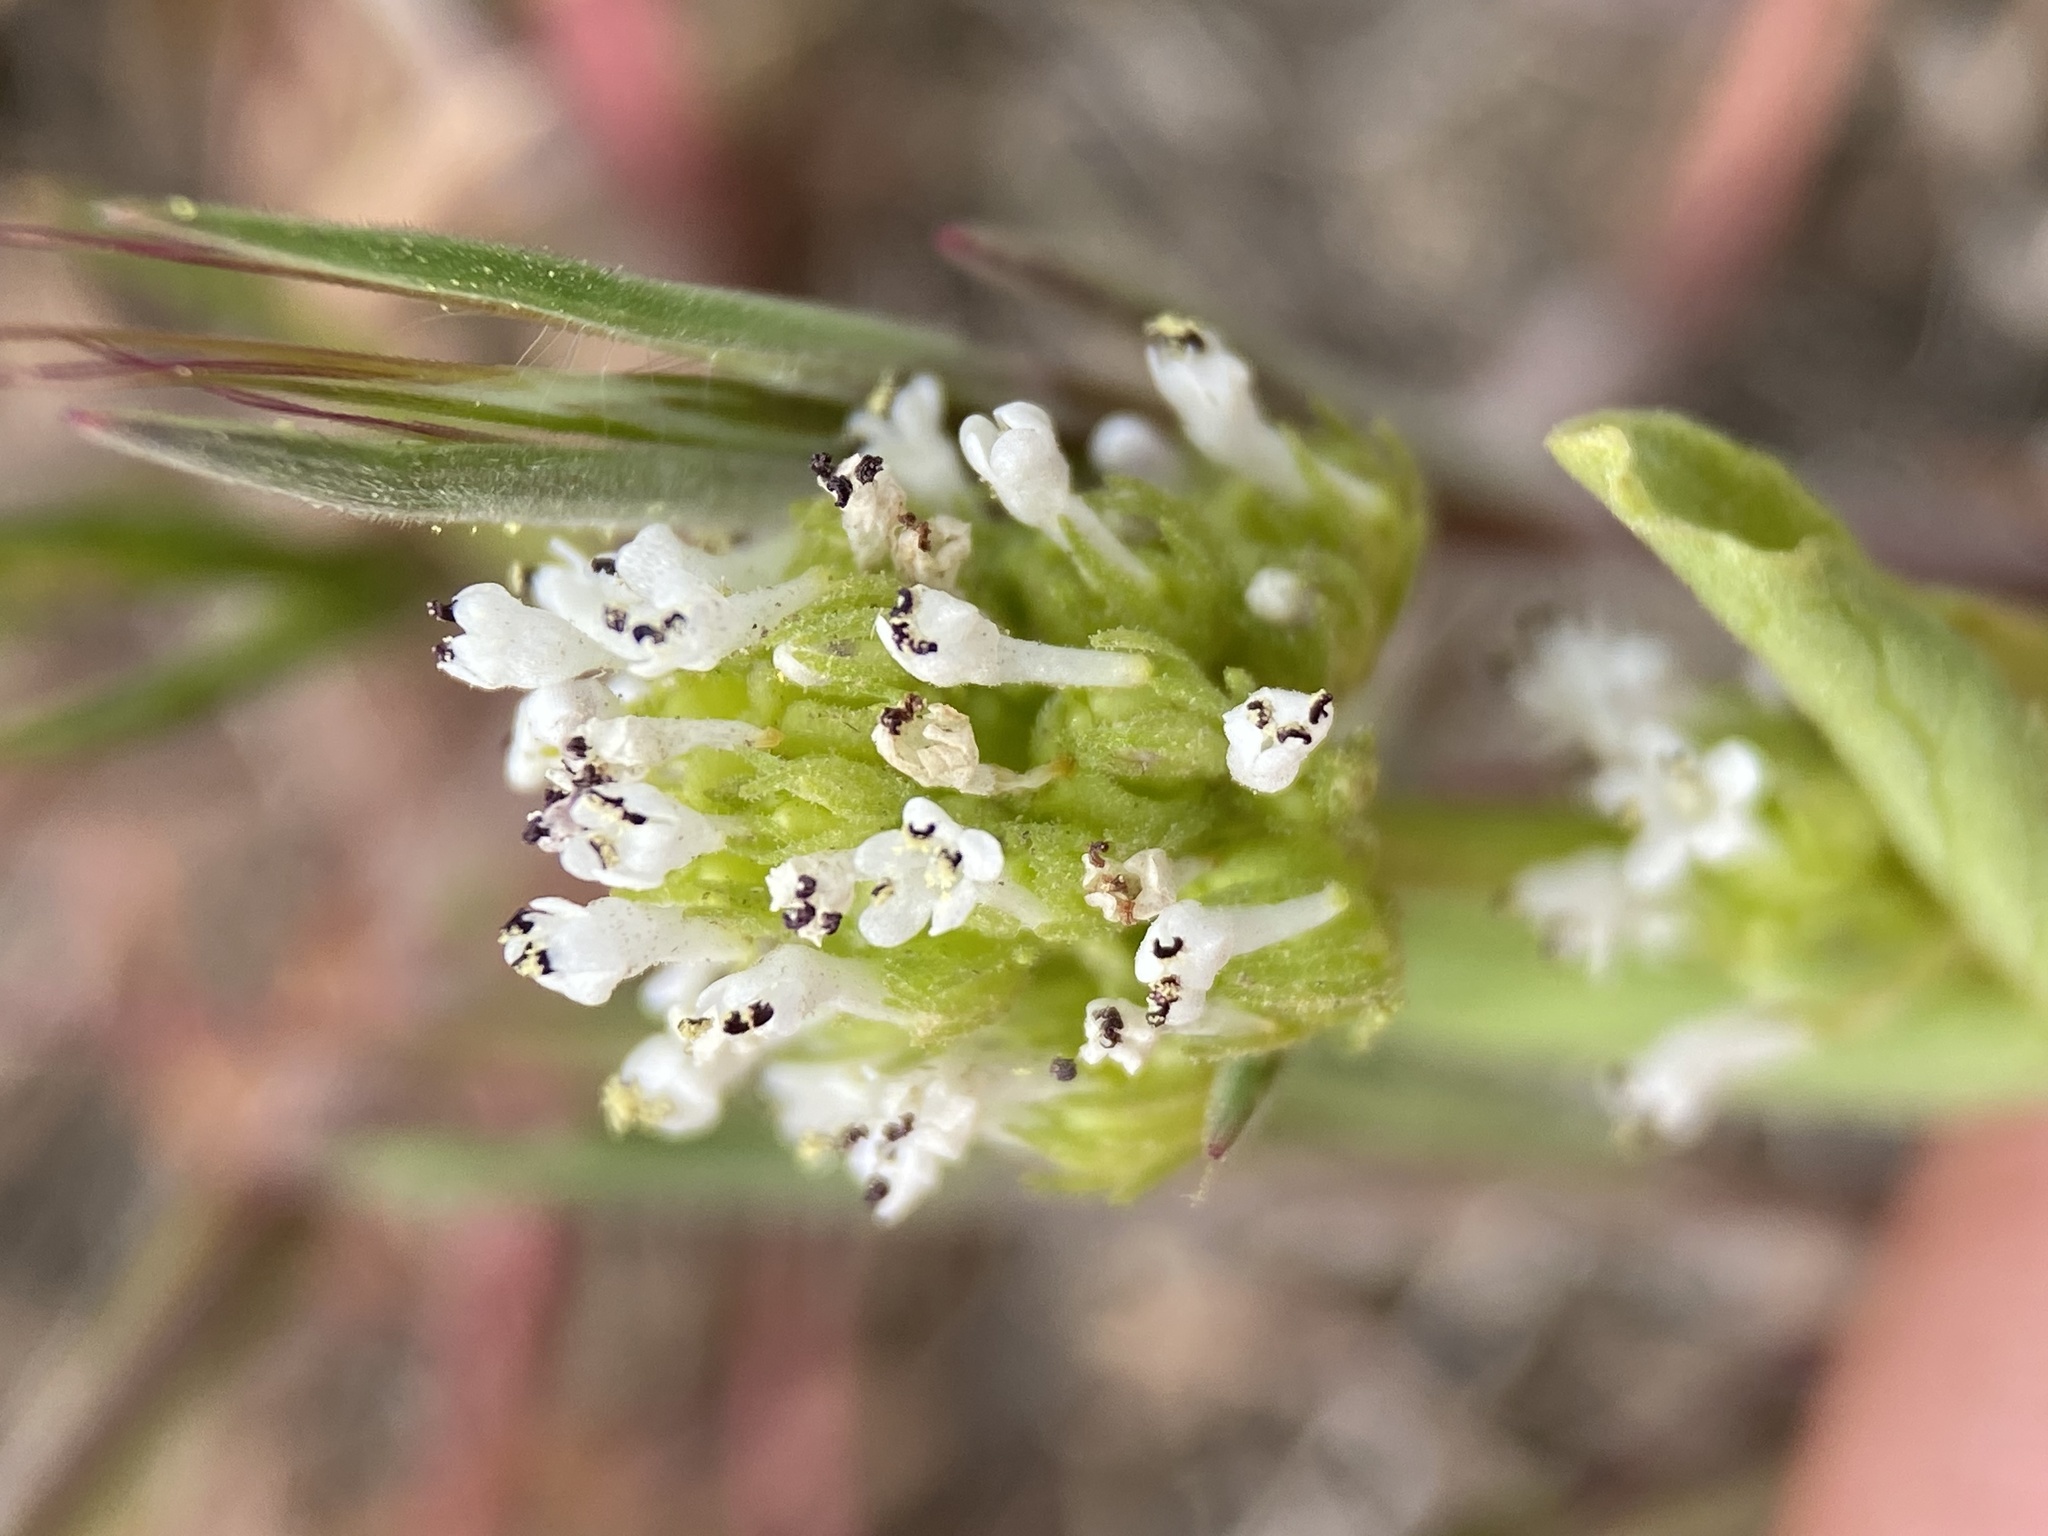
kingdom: Plantae
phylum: Tracheophyta
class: Magnoliopsida
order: Dipsacales
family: Caprifoliaceae
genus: Plectritis
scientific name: Plectritis macroptera
